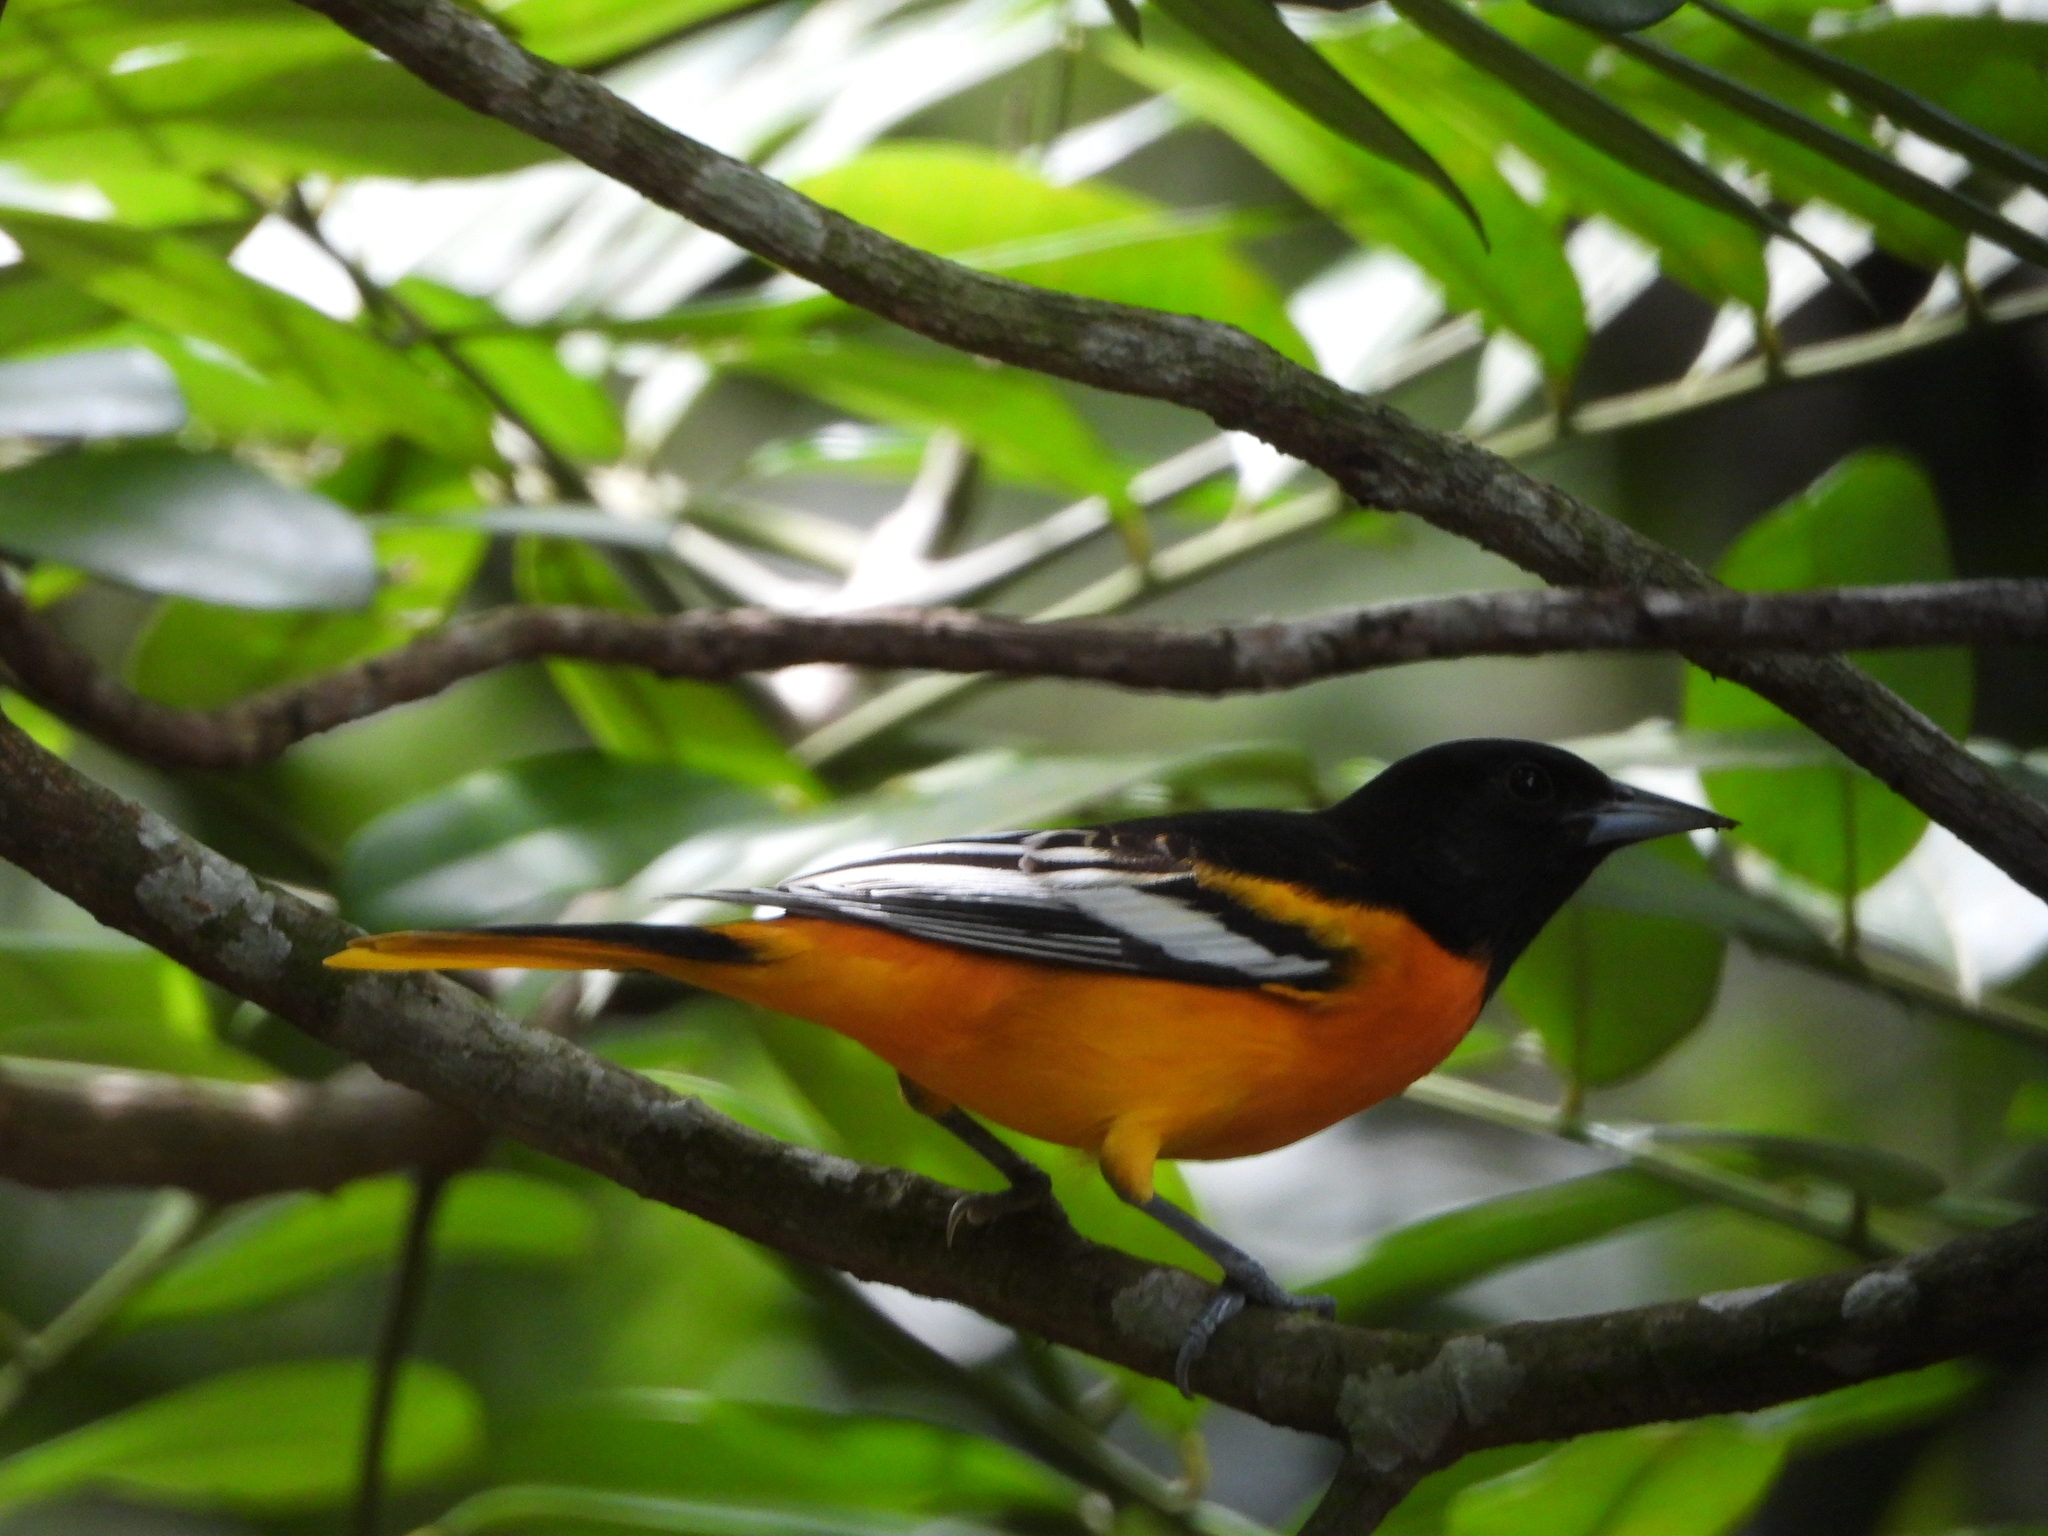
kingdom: Animalia
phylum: Chordata
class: Aves
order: Passeriformes
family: Icteridae
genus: Icterus
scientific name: Icterus galbula
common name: Baltimore oriole
